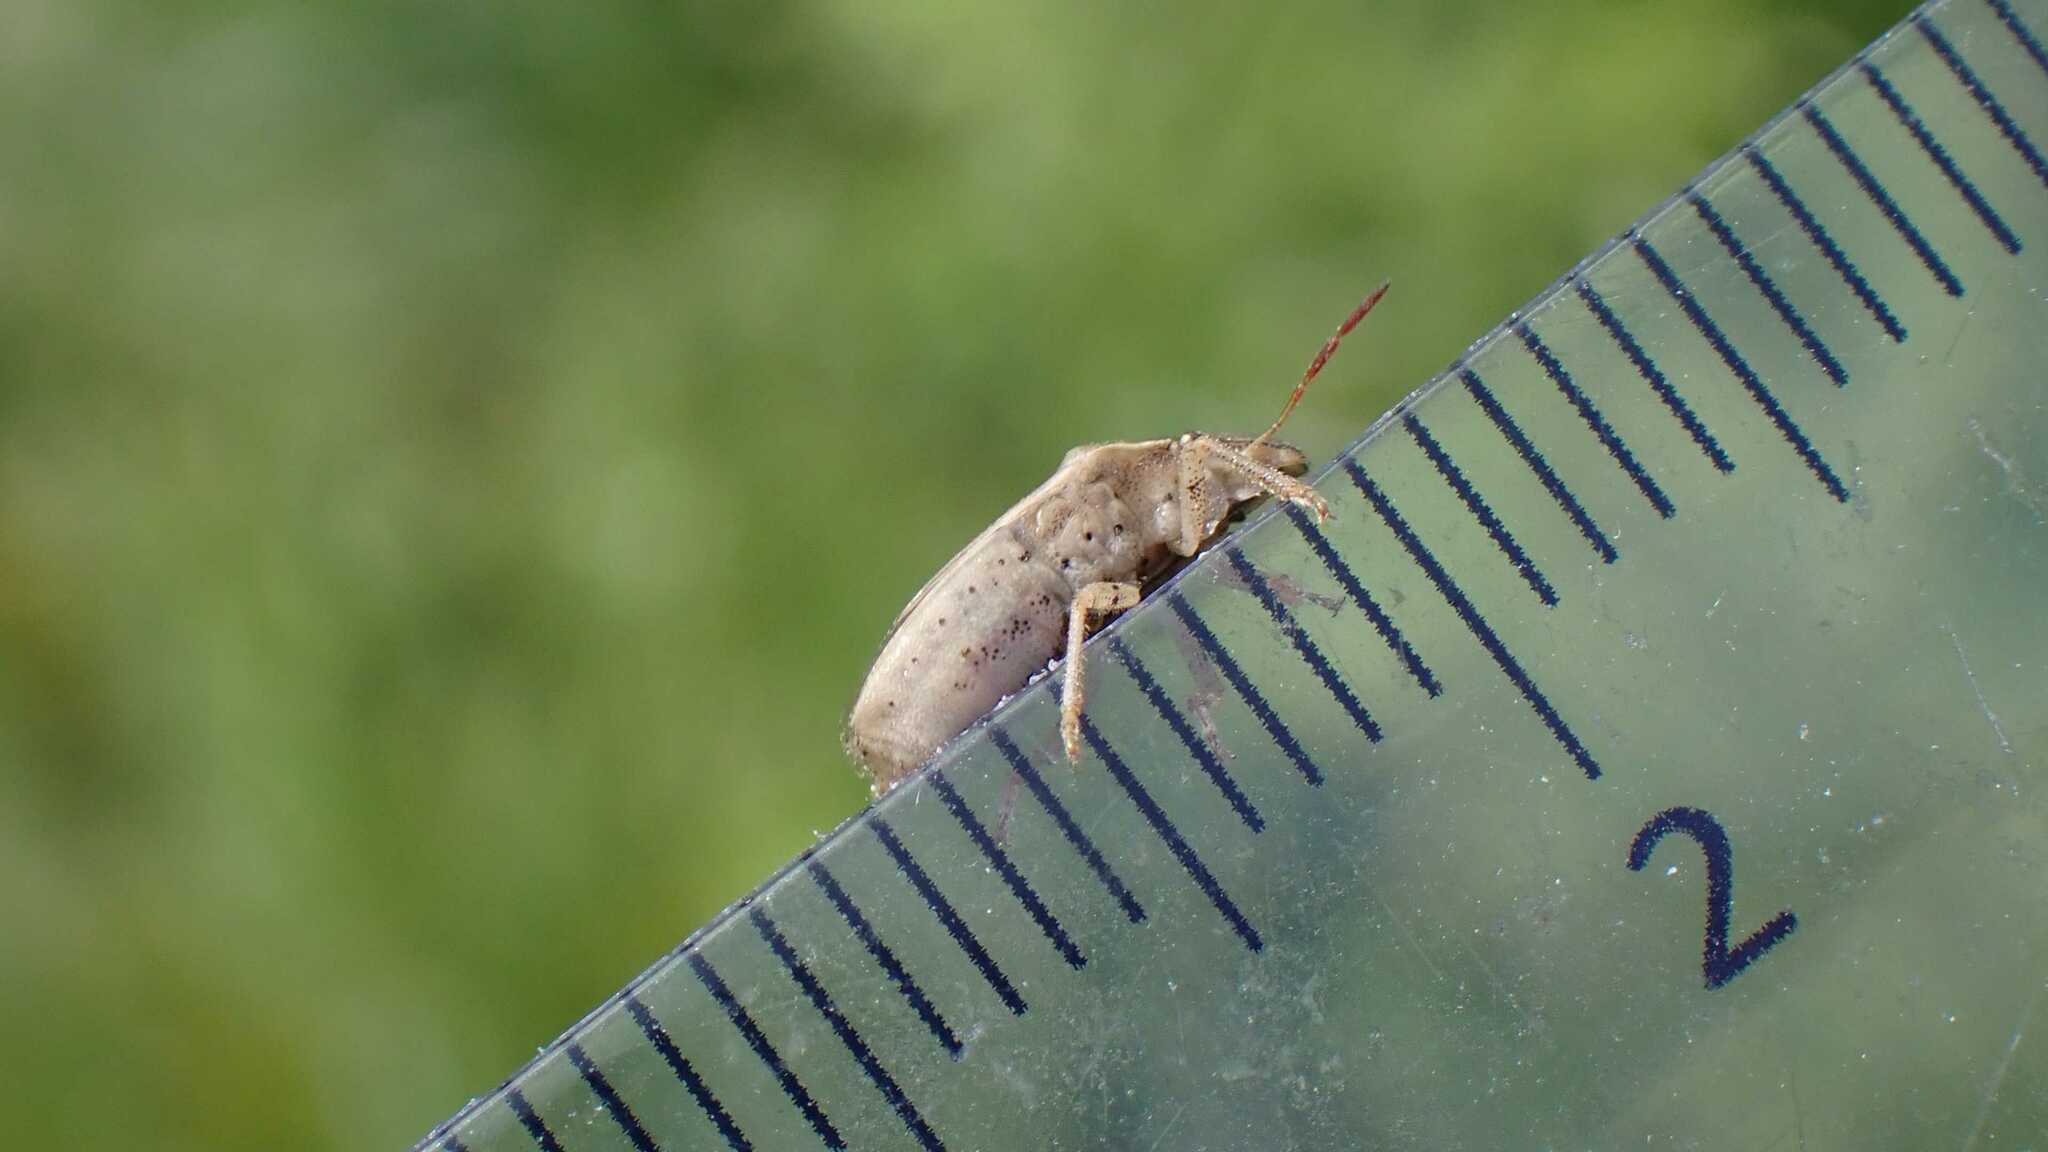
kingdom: Animalia
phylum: Arthropoda
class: Insecta
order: Hemiptera
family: Pentatomidae
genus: Aelia
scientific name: Aelia acuminata
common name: Bishop's mitre
